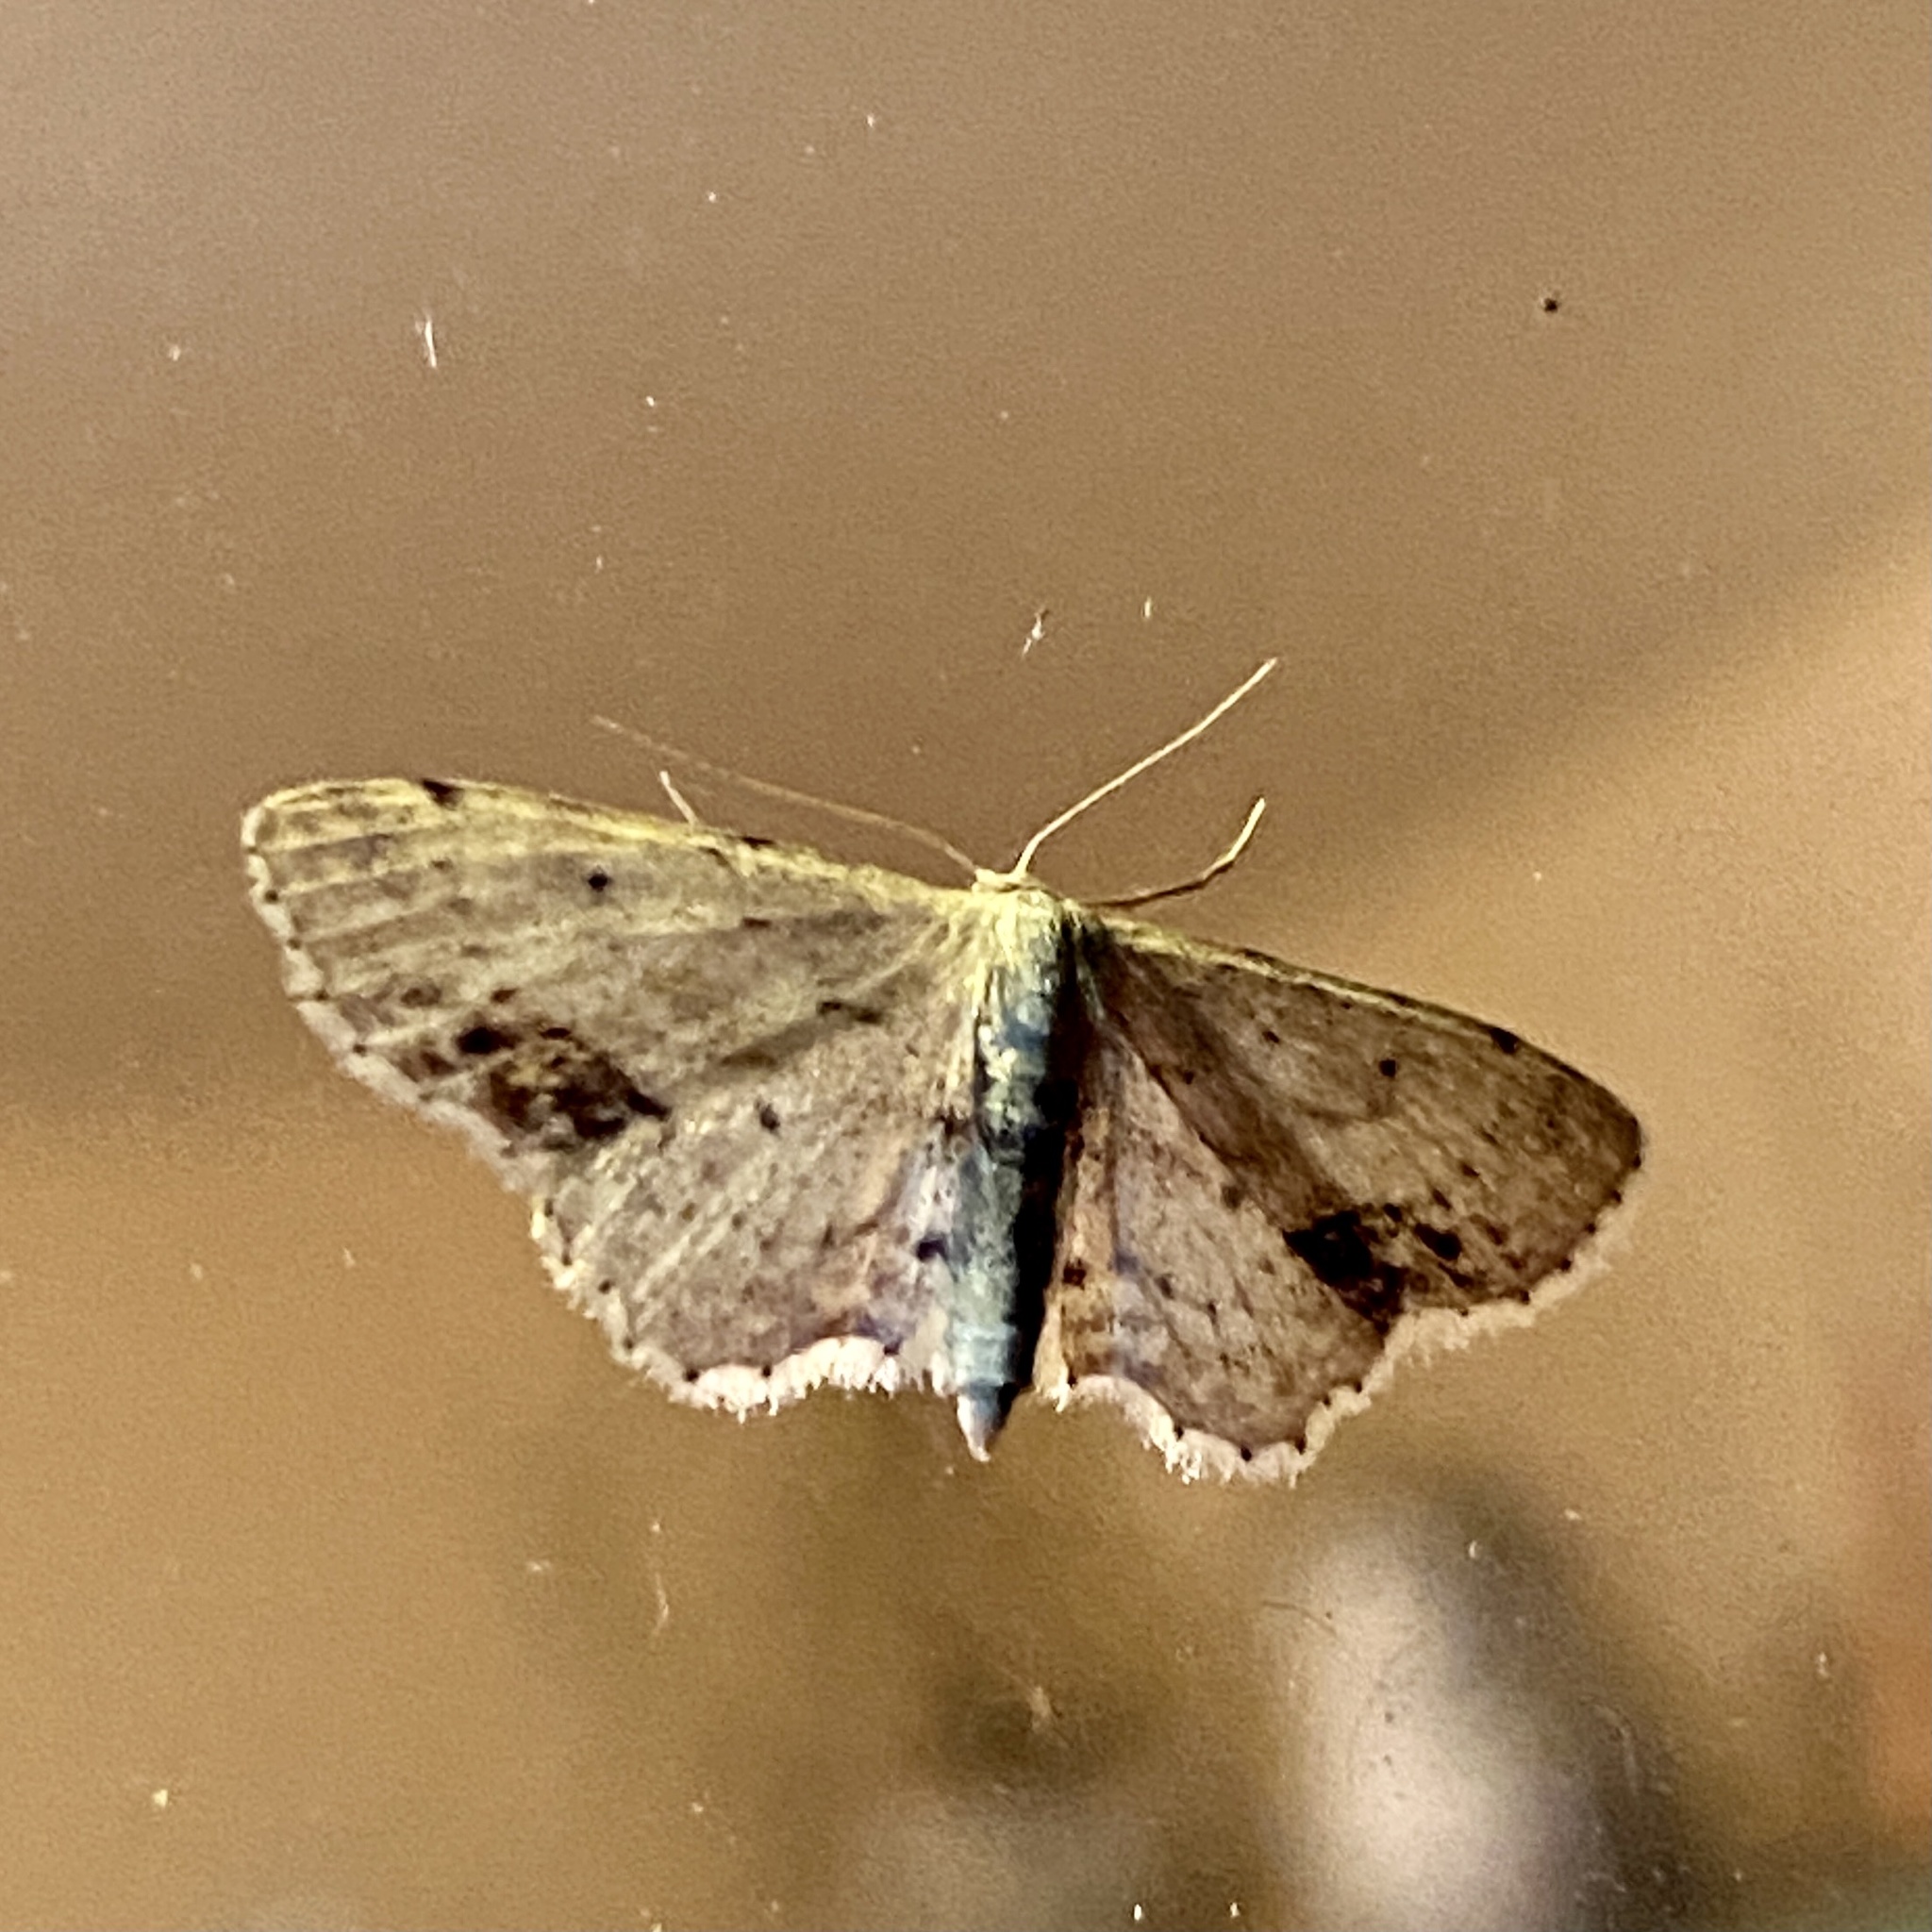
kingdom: Animalia
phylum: Arthropoda
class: Insecta
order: Lepidoptera
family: Geometridae
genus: Idaea
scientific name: Idaea dimidiata
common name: Single-dotted wave
